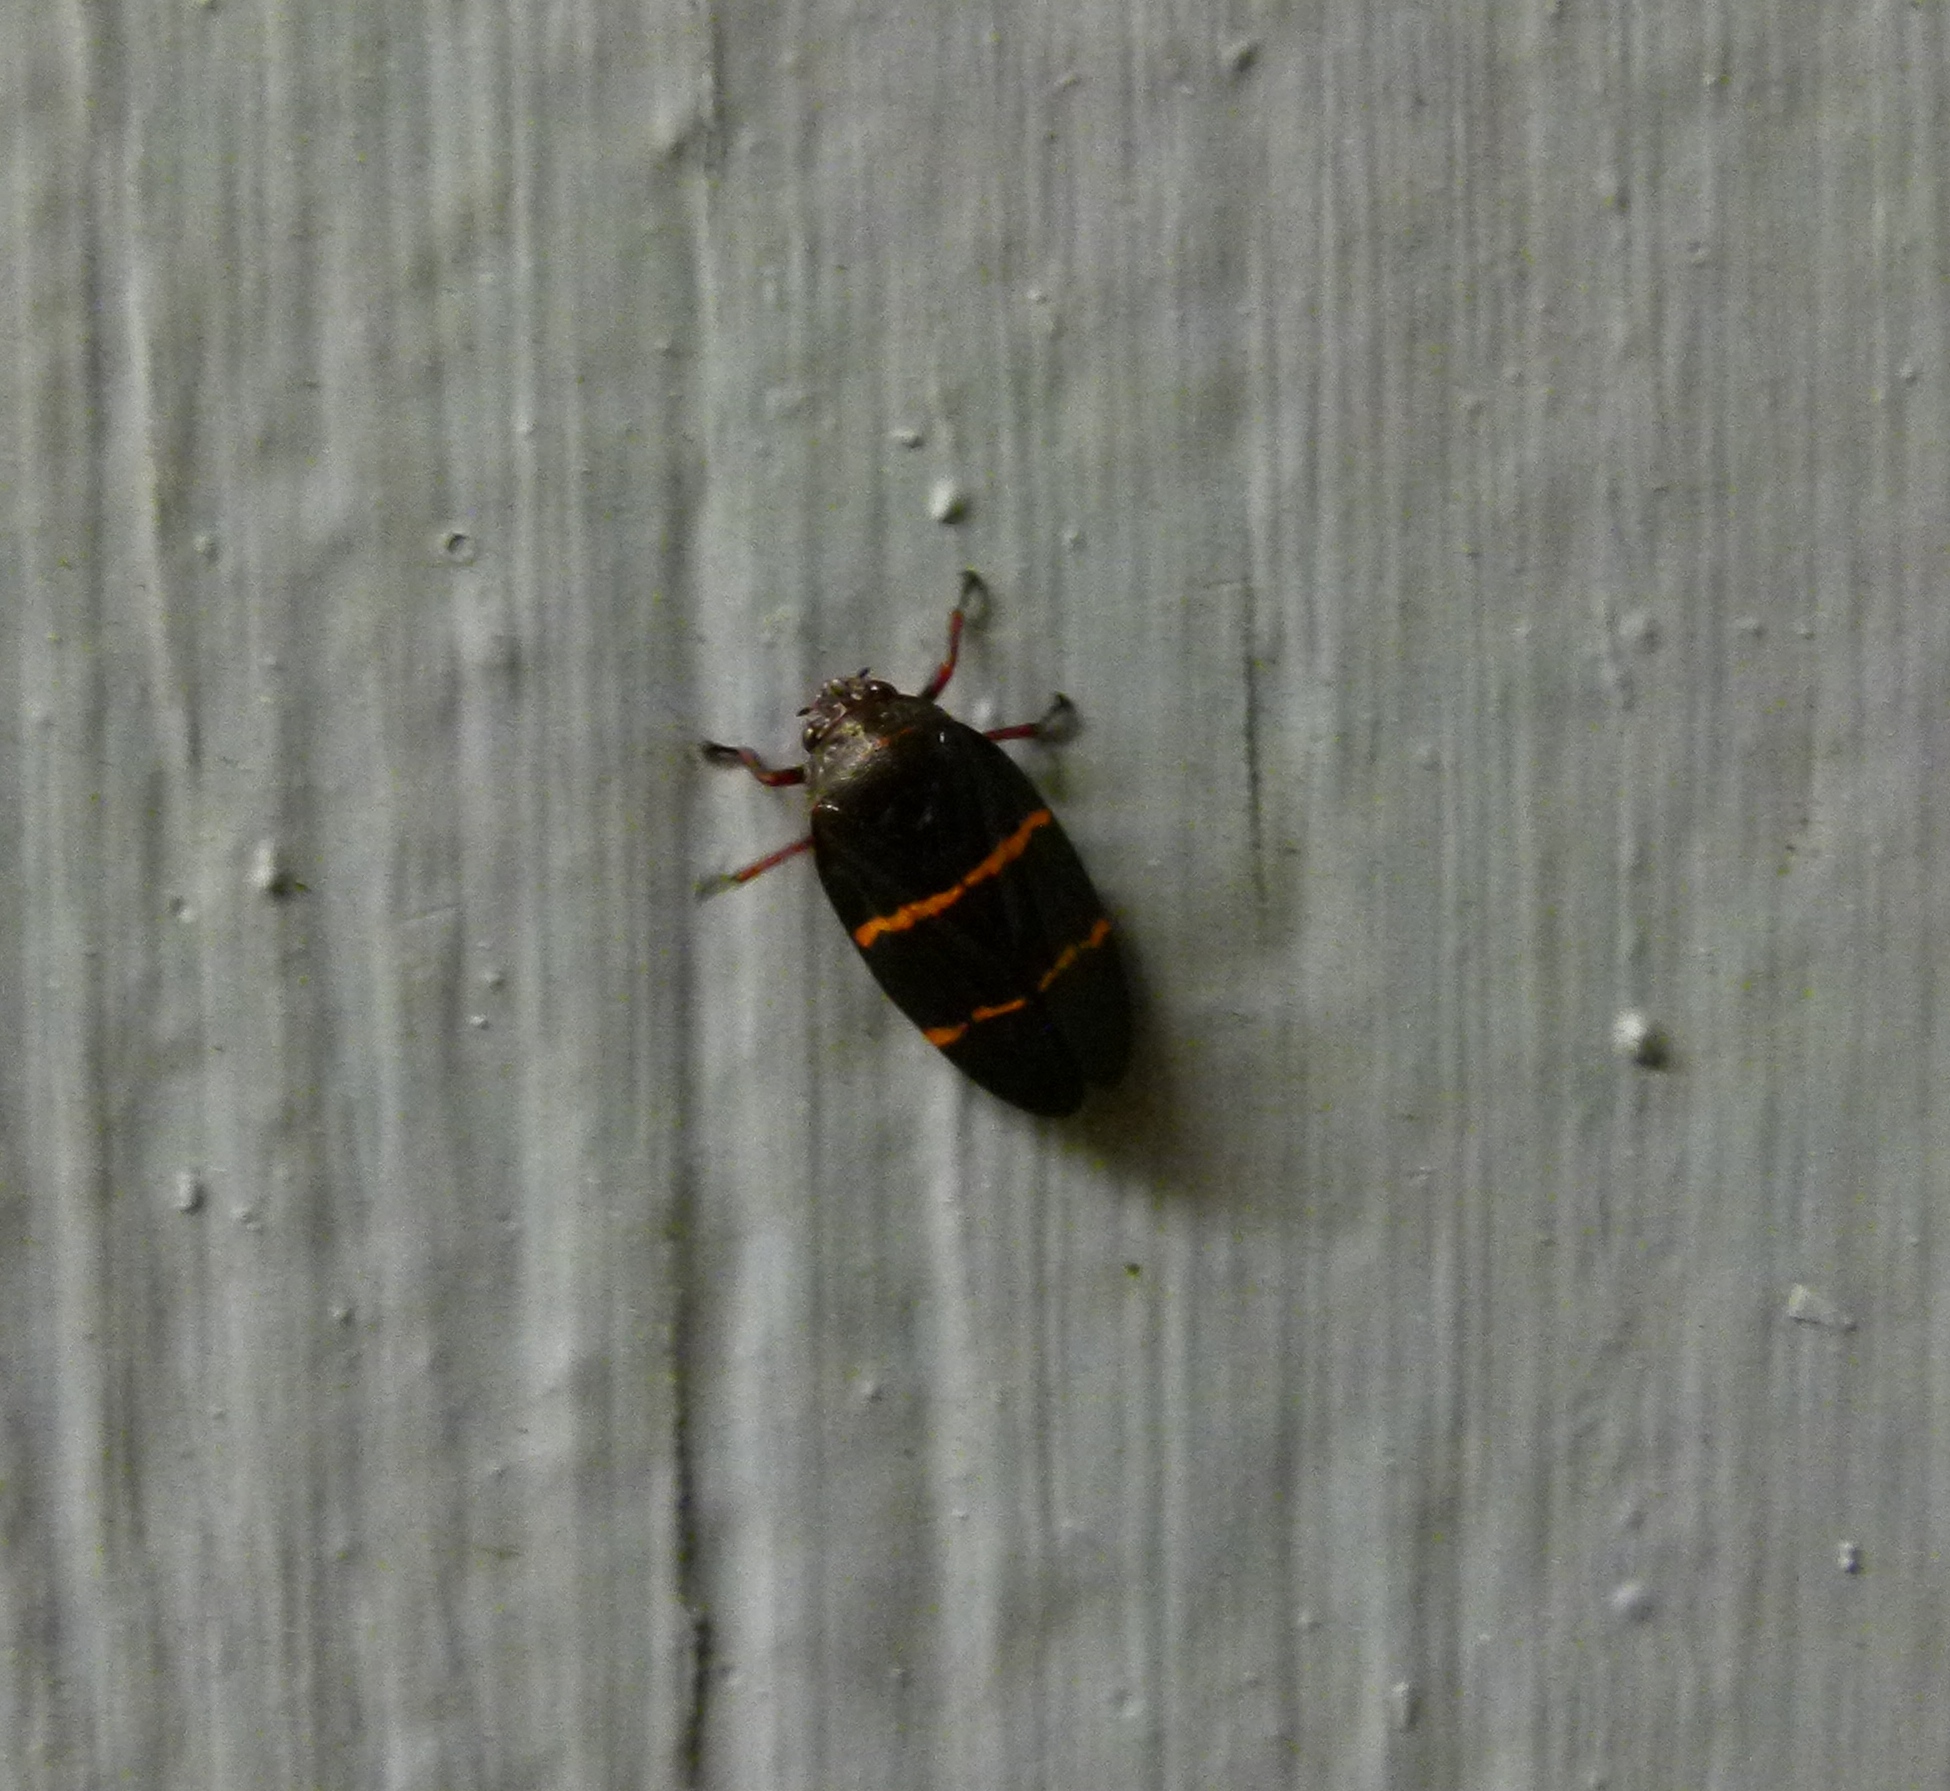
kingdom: Animalia
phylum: Arthropoda
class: Insecta
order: Hemiptera
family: Cercopidae
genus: Prosapia
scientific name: Prosapia bicincta
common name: Twolined spittlebug
